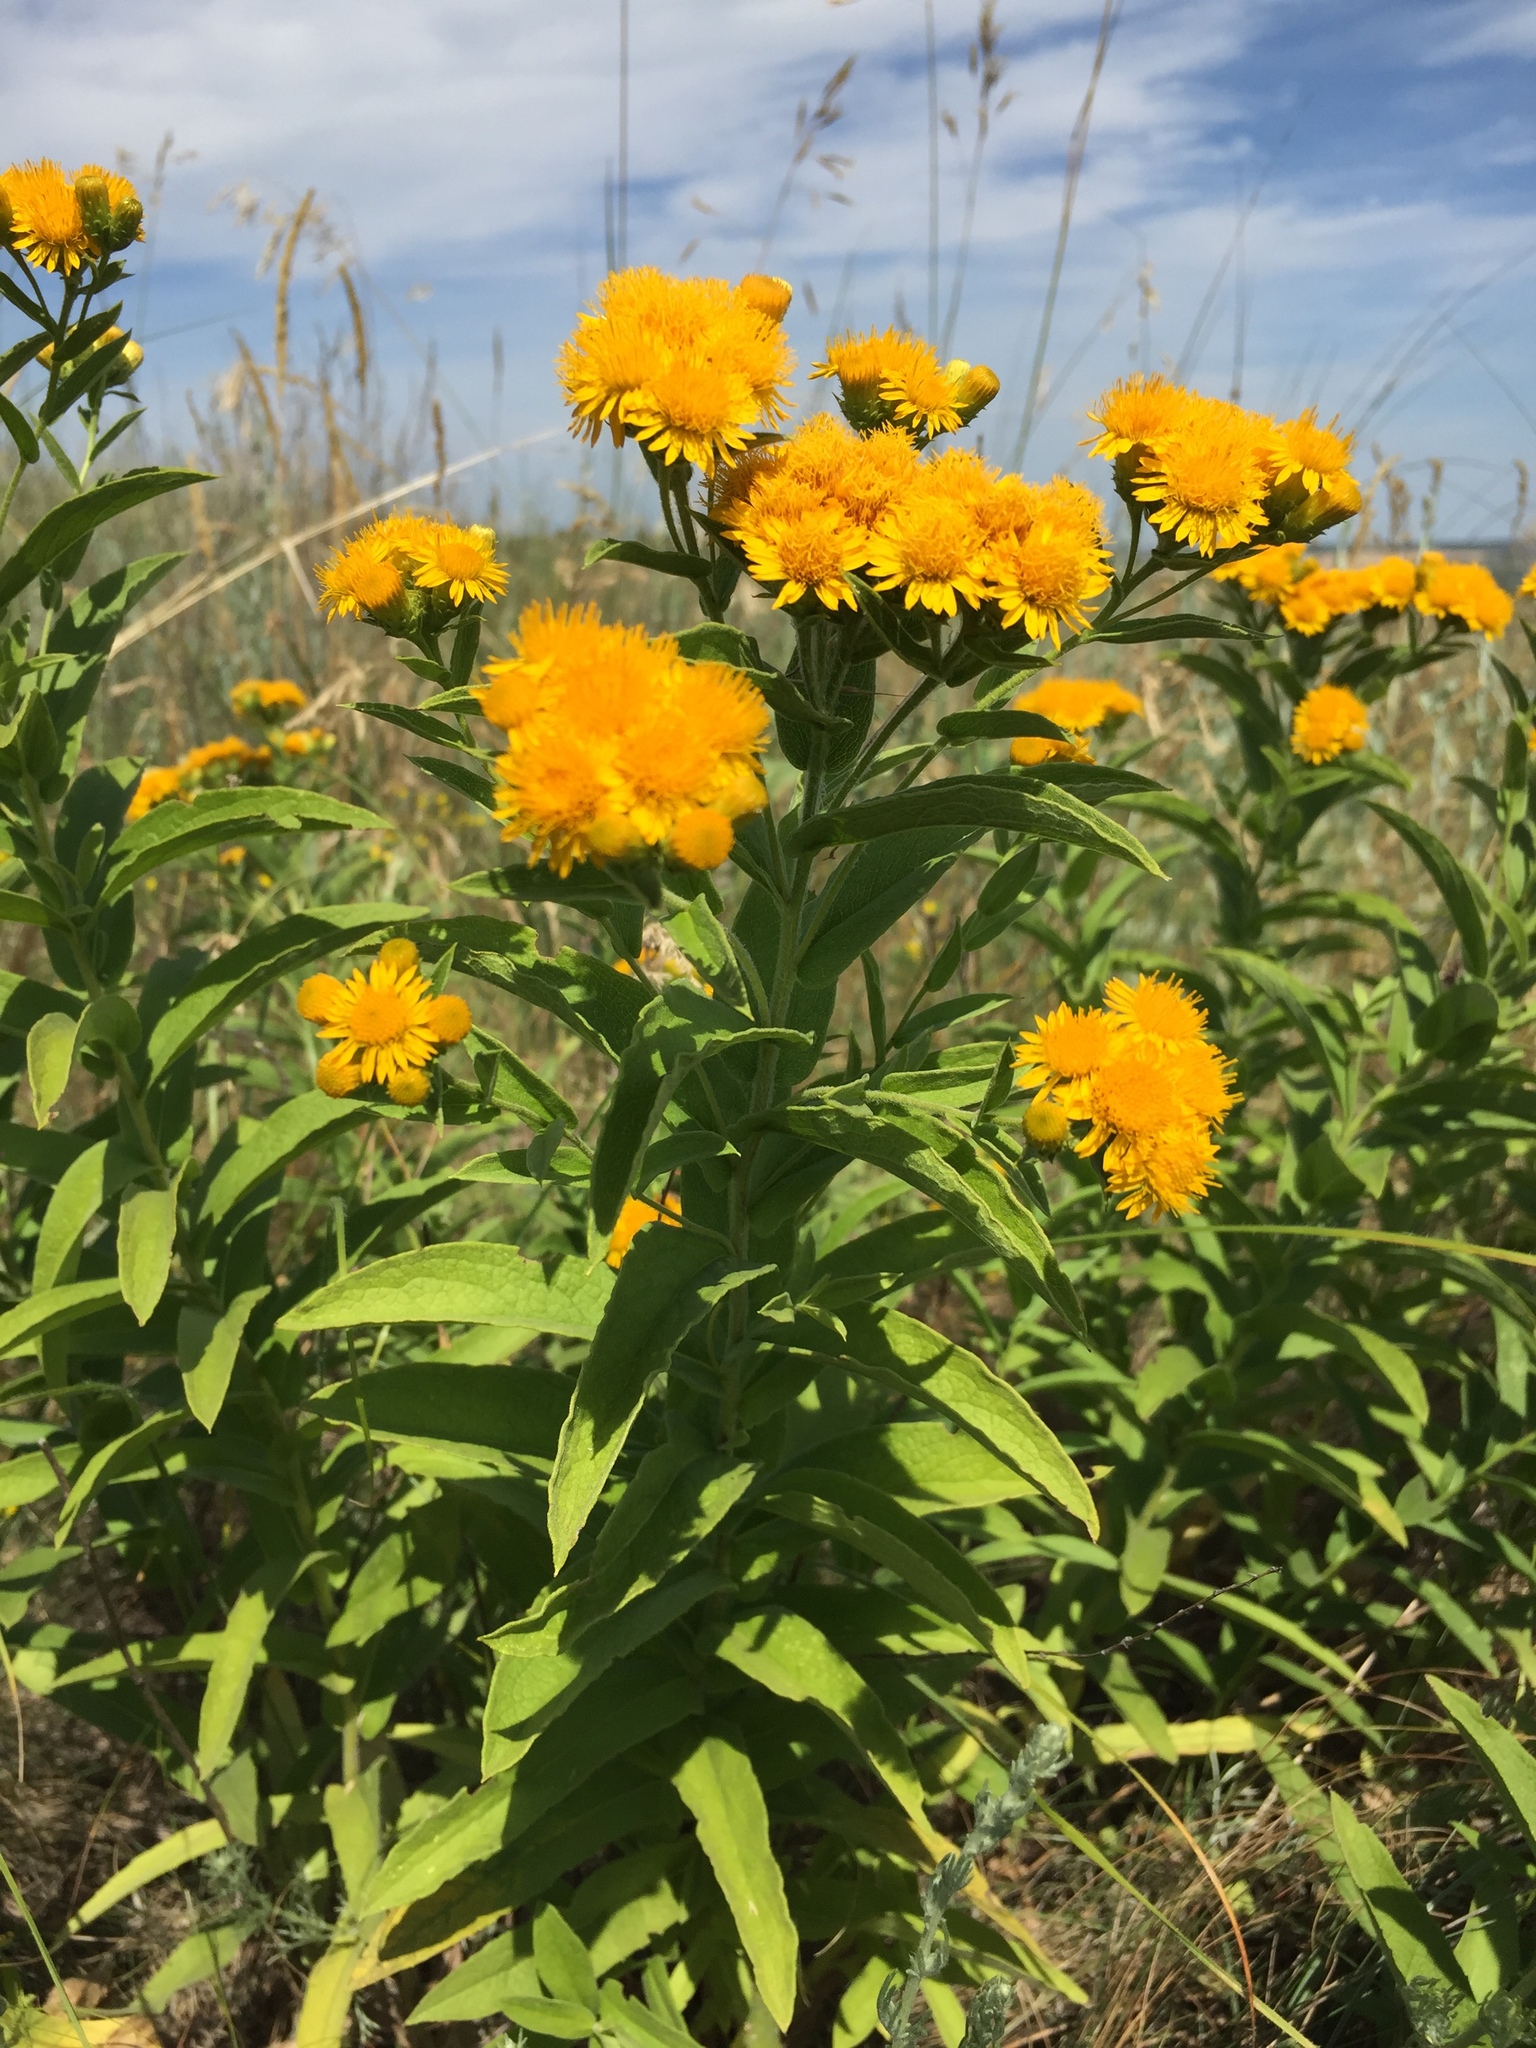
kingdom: Plantae
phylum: Tracheophyta
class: Magnoliopsida
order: Asterales
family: Asteraceae
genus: Pentanema
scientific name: Pentanema germanicum
